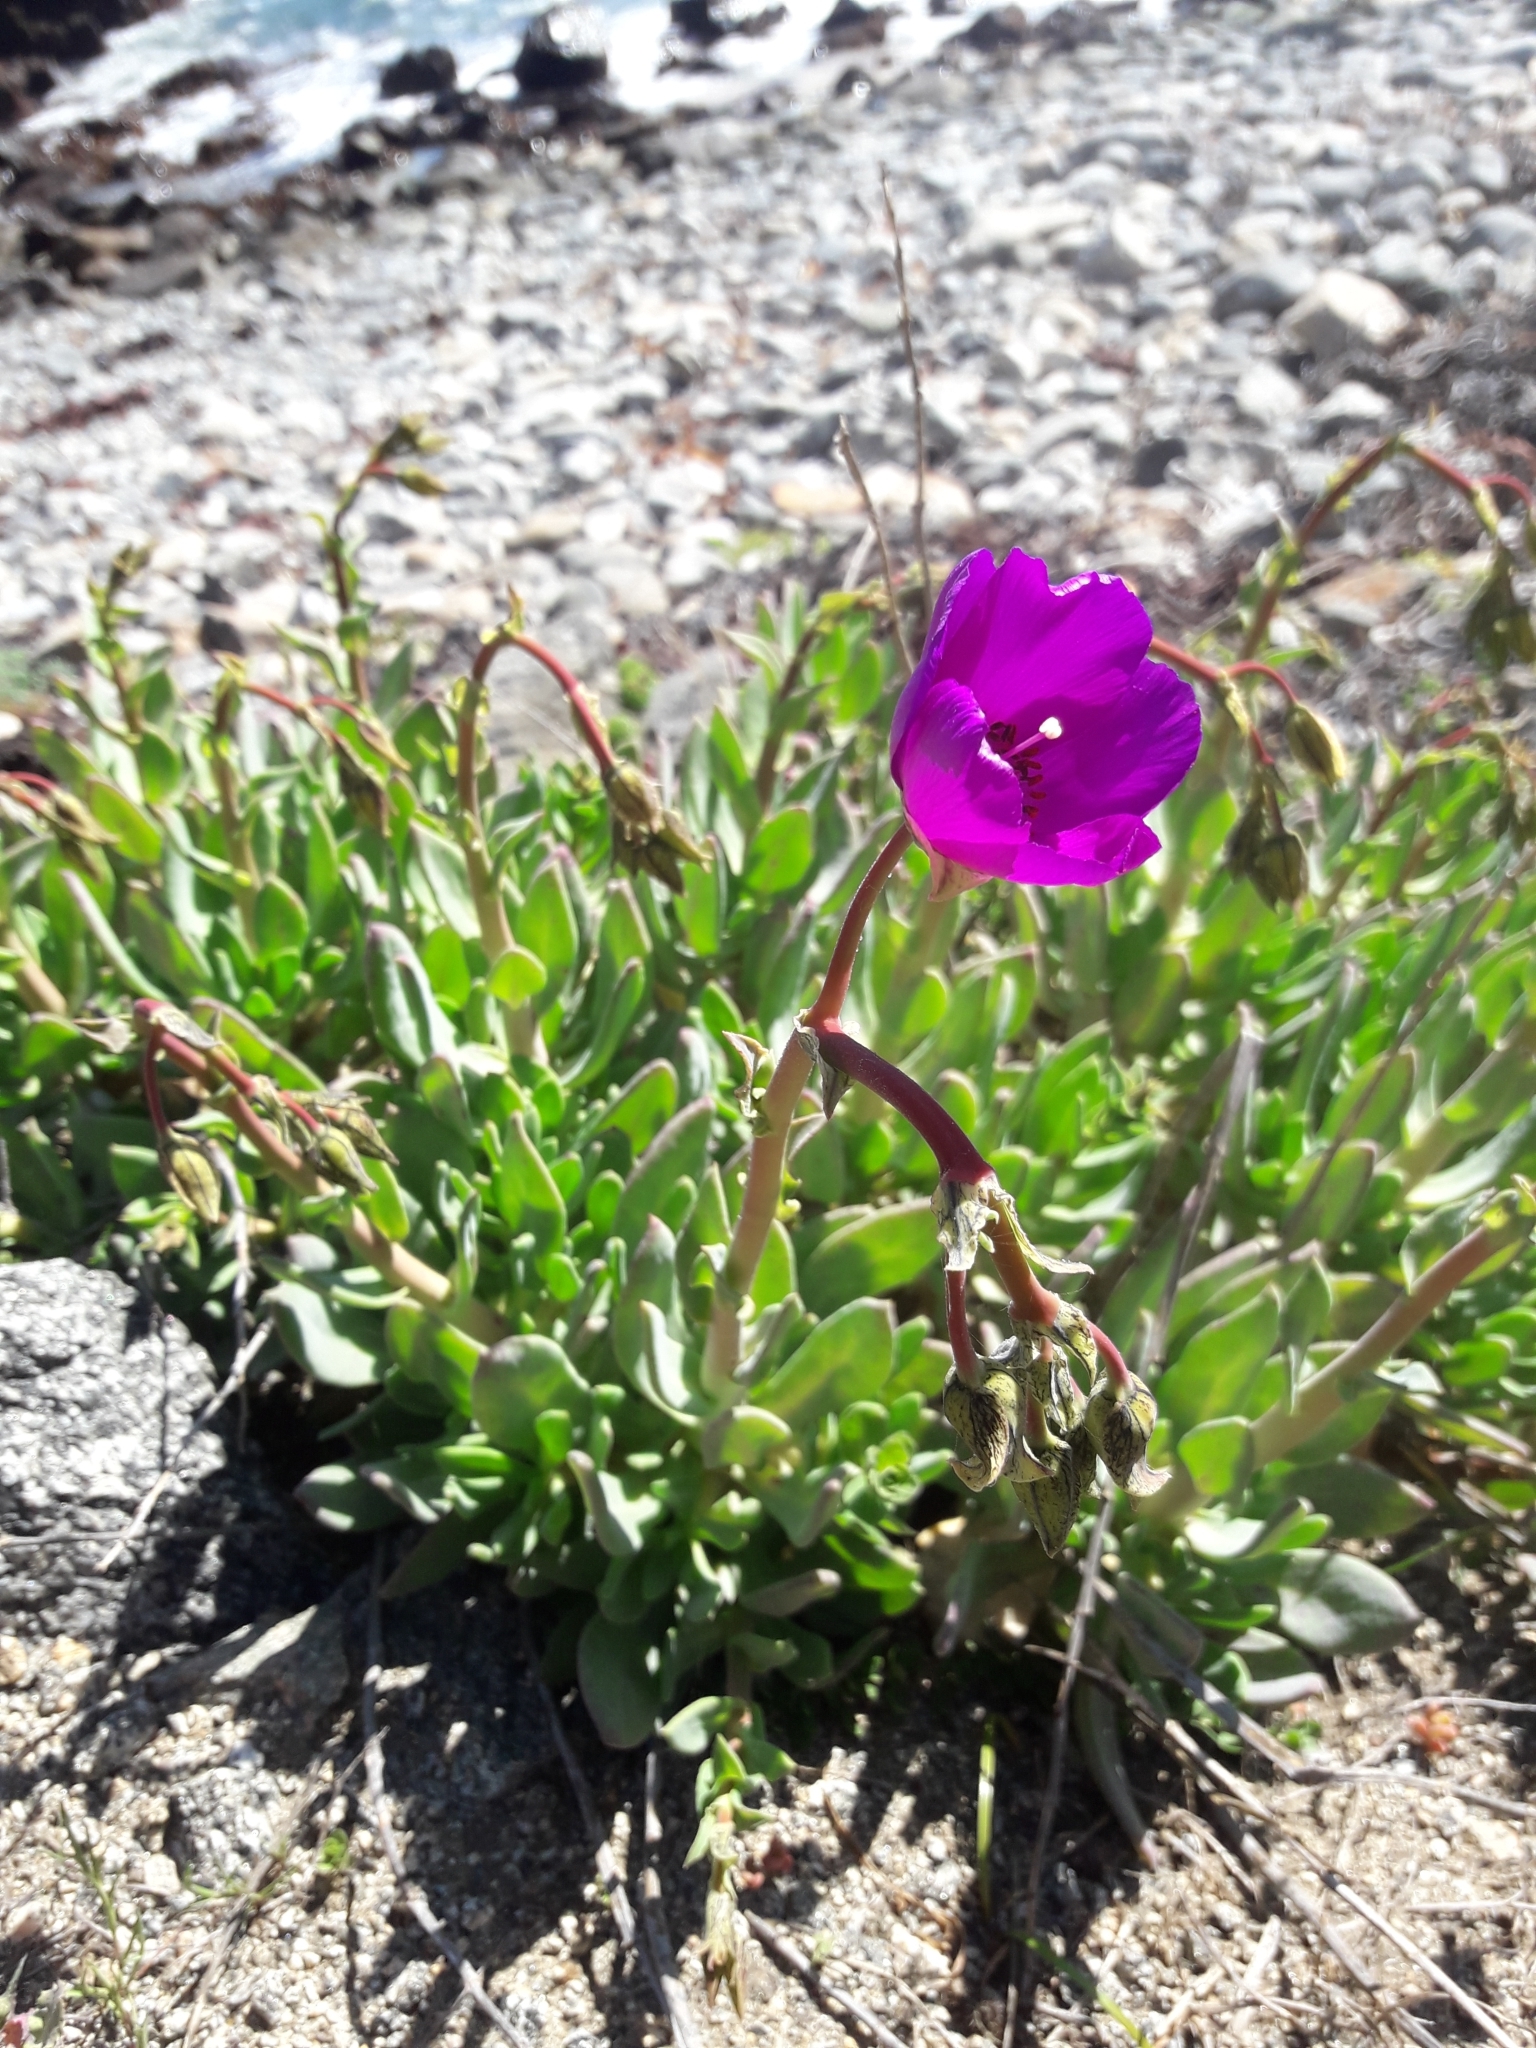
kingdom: Plantae
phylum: Tracheophyta
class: Magnoliopsida
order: Caryophyllales
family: Montiaceae
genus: Cistanthe
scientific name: Cistanthe grandiflora
